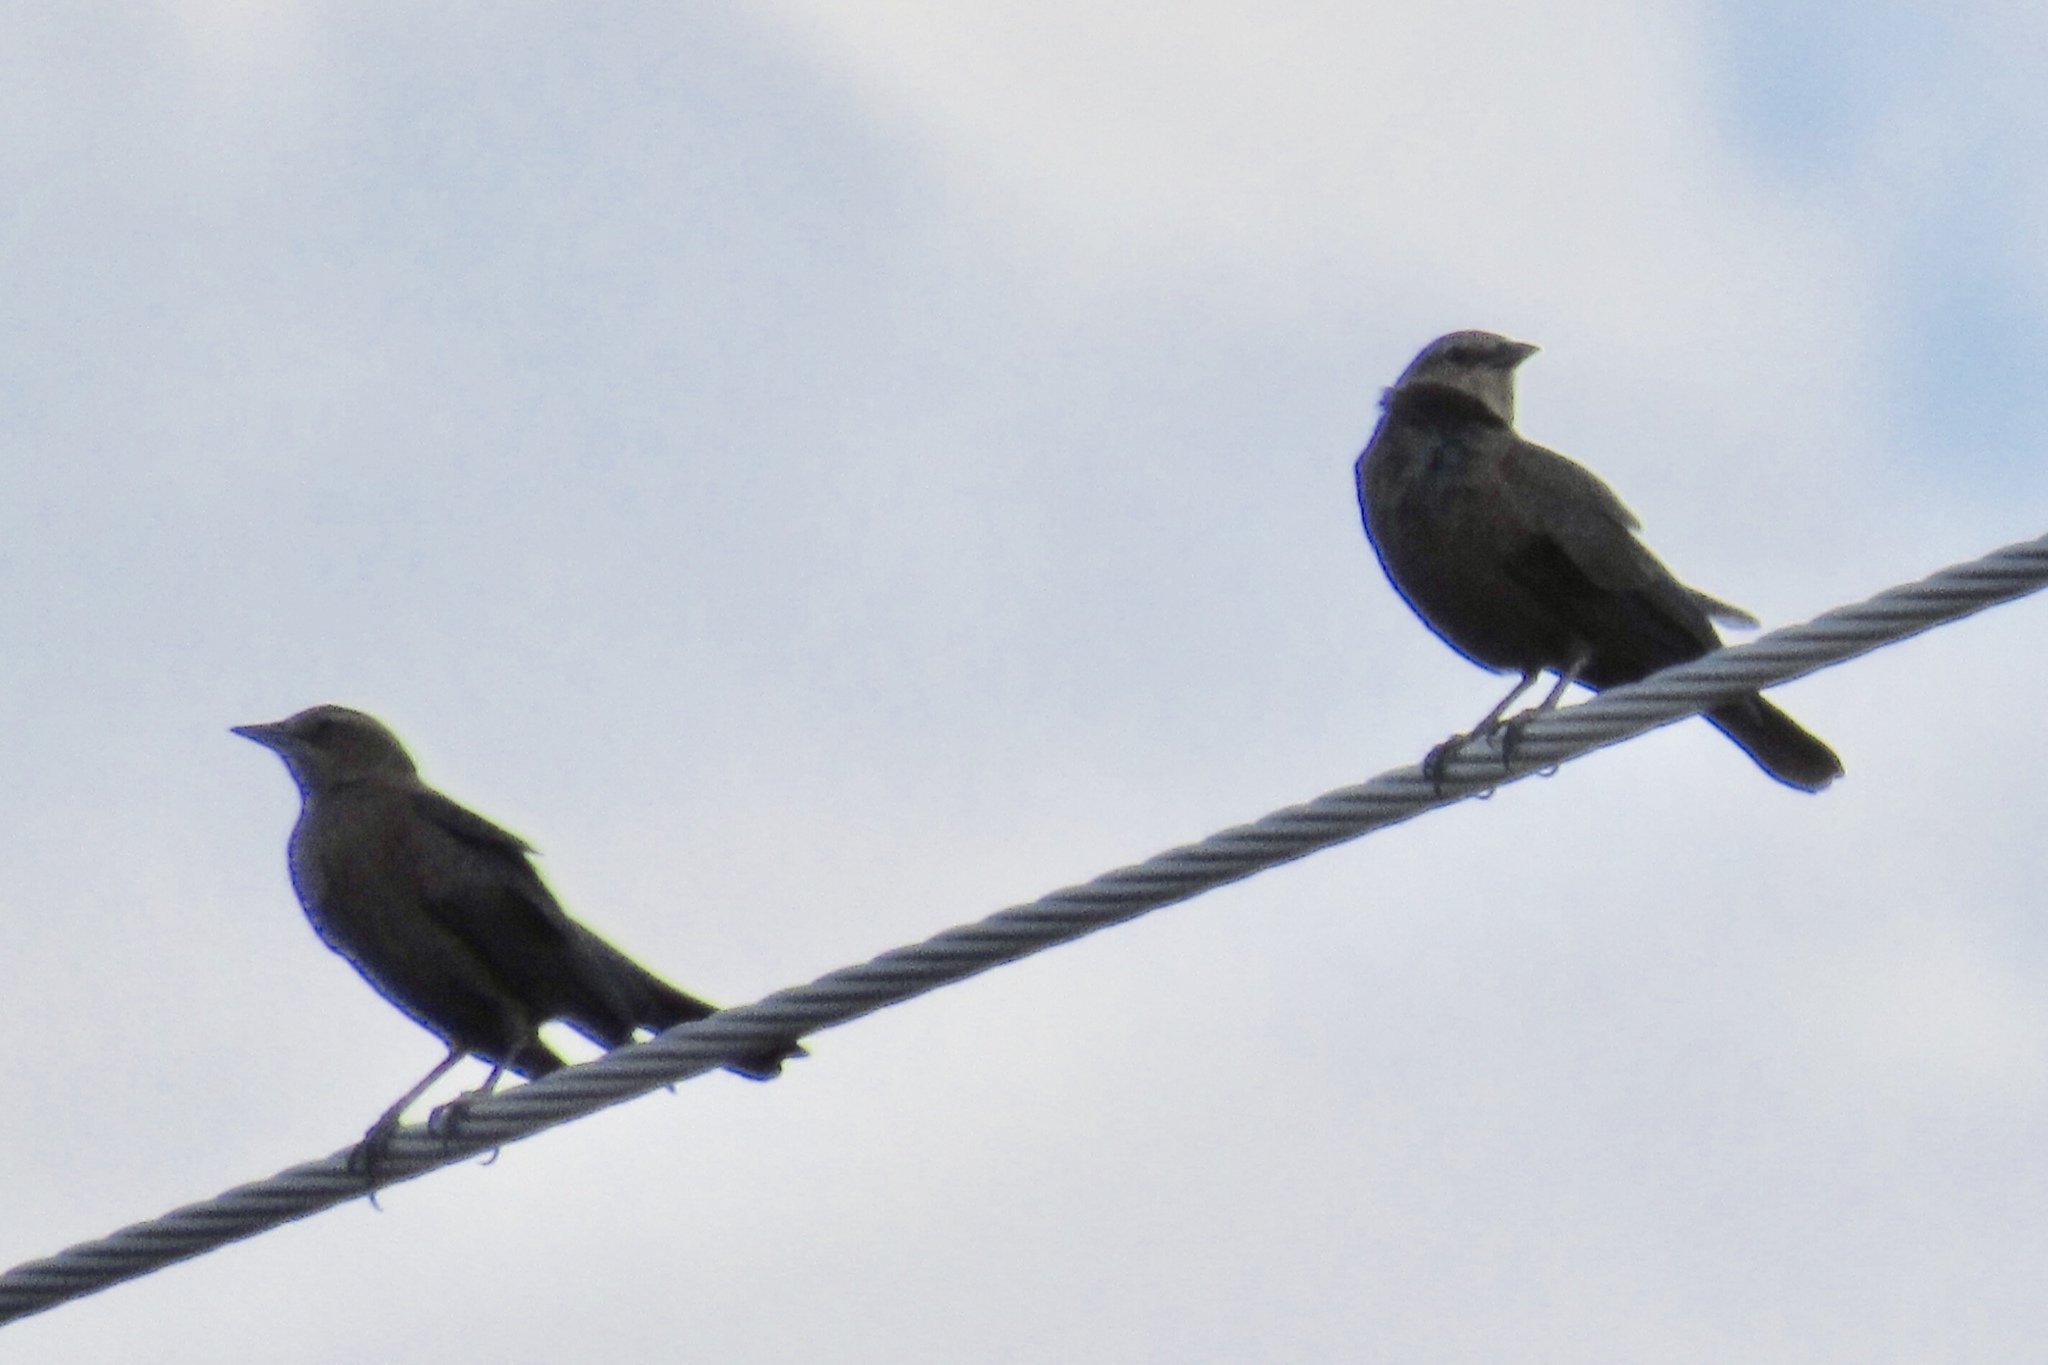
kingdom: Animalia
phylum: Chordata
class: Aves
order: Passeriformes
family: Icteridae
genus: Euphagus
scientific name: Euphagus cyanocephalus
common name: Brewer's blackbird
